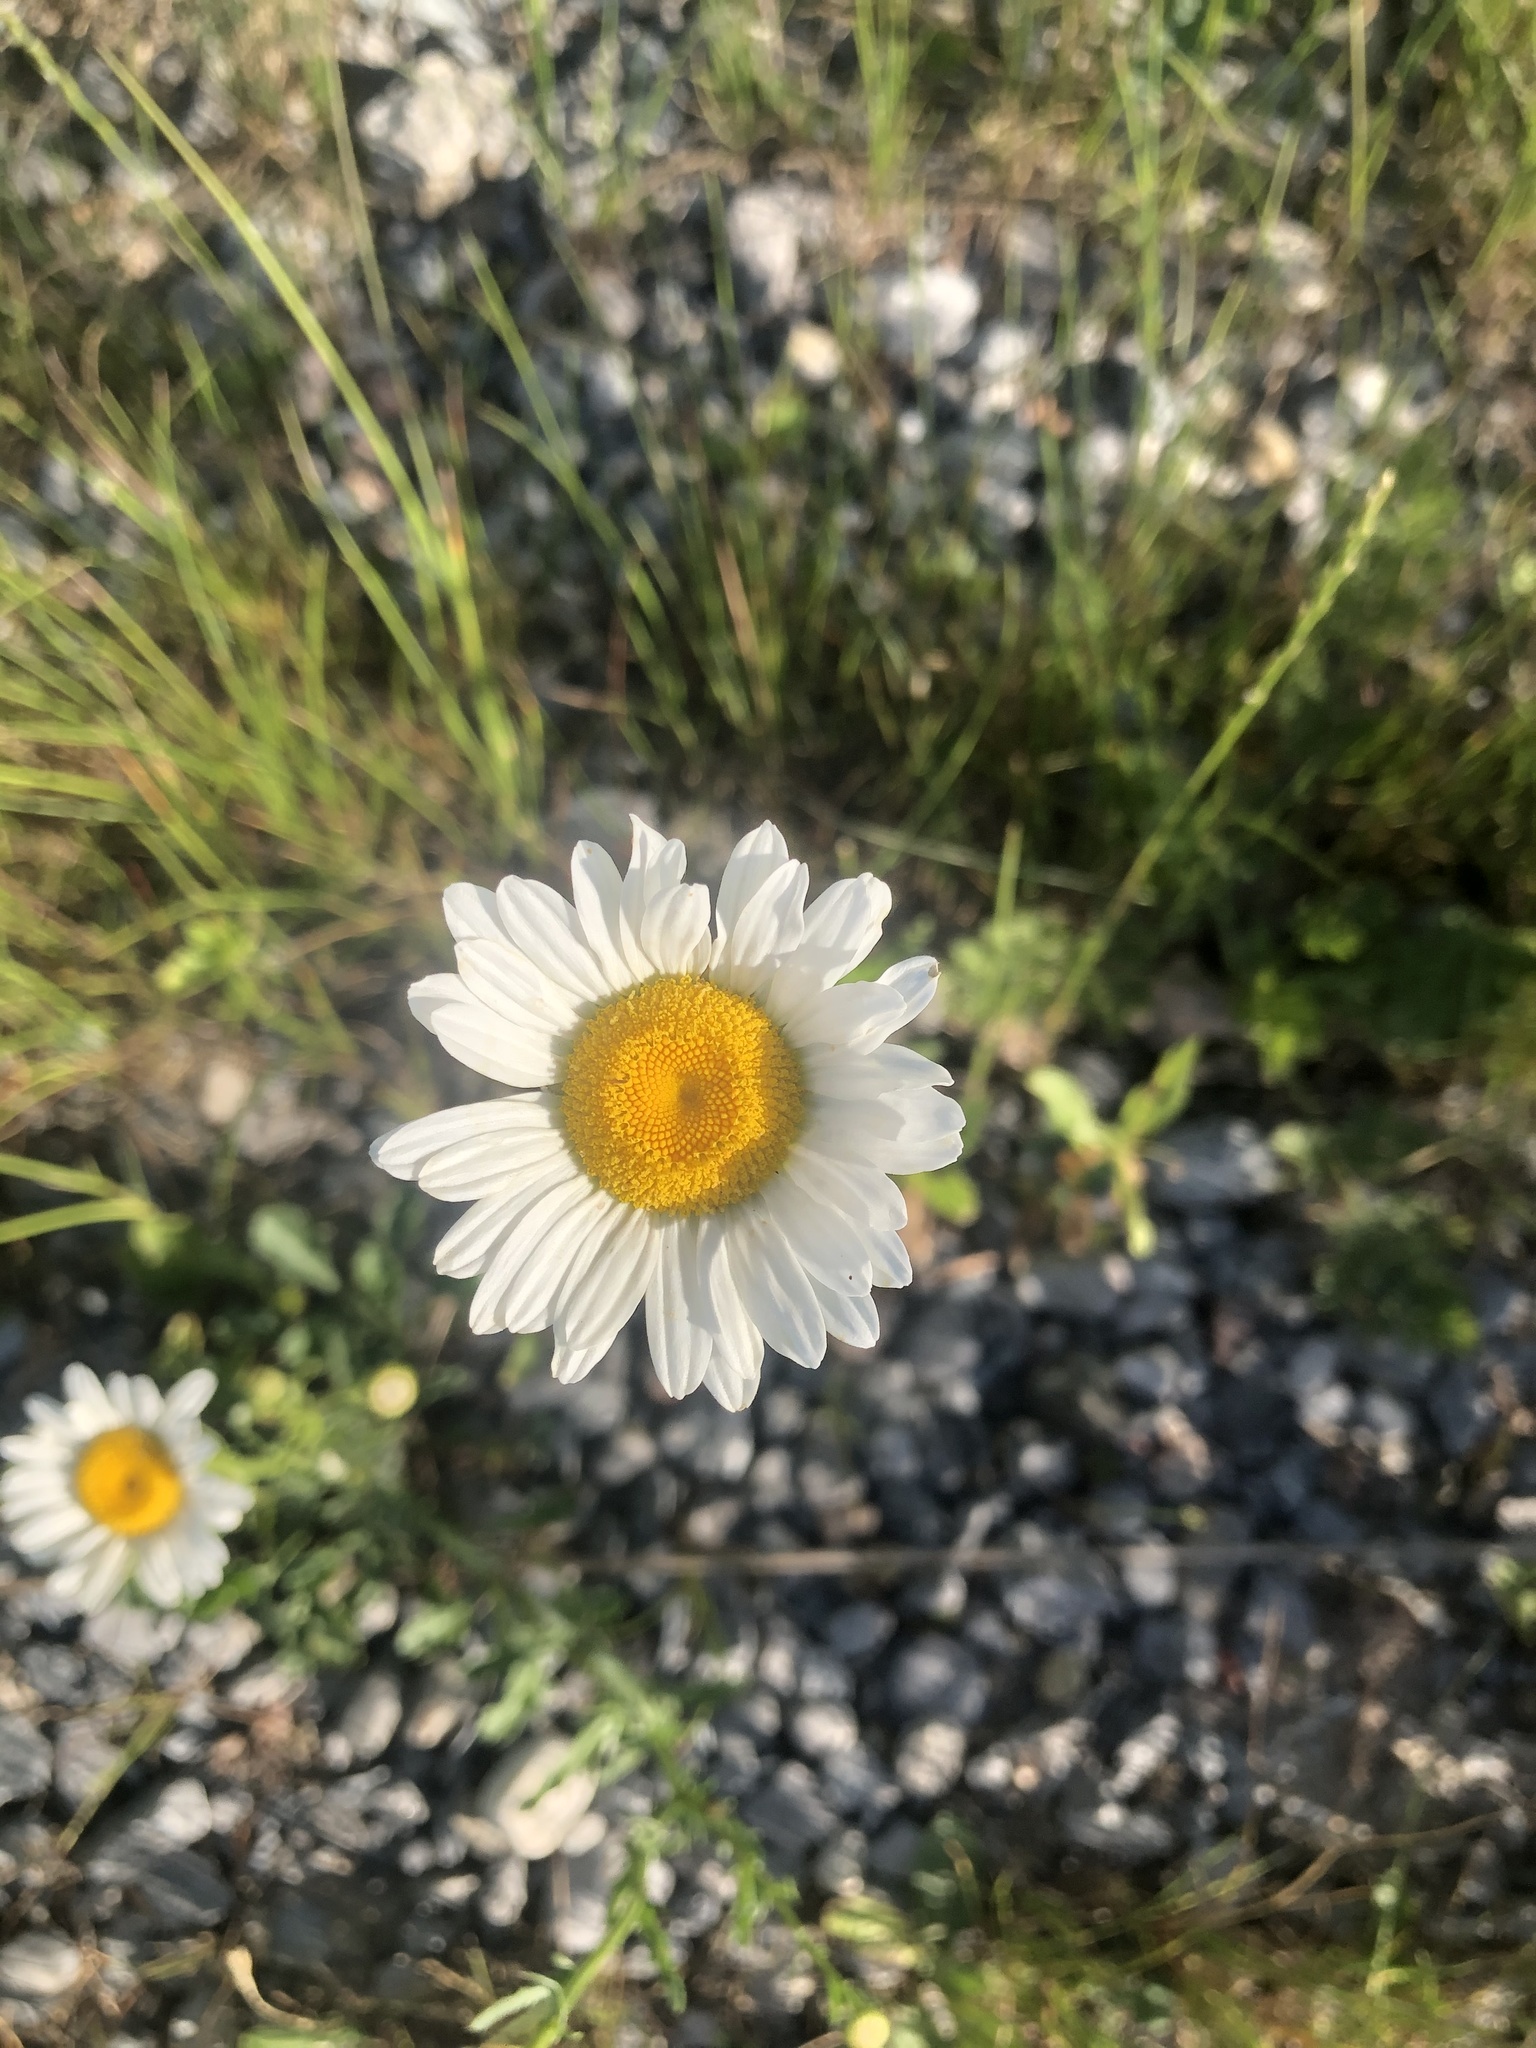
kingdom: Plantae
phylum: Tracheophyta
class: Magnoliopsida
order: Asterales
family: Asteraceae
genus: Leucanthemum
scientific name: Leucanthemum vulgare
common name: Oxeye daisy
